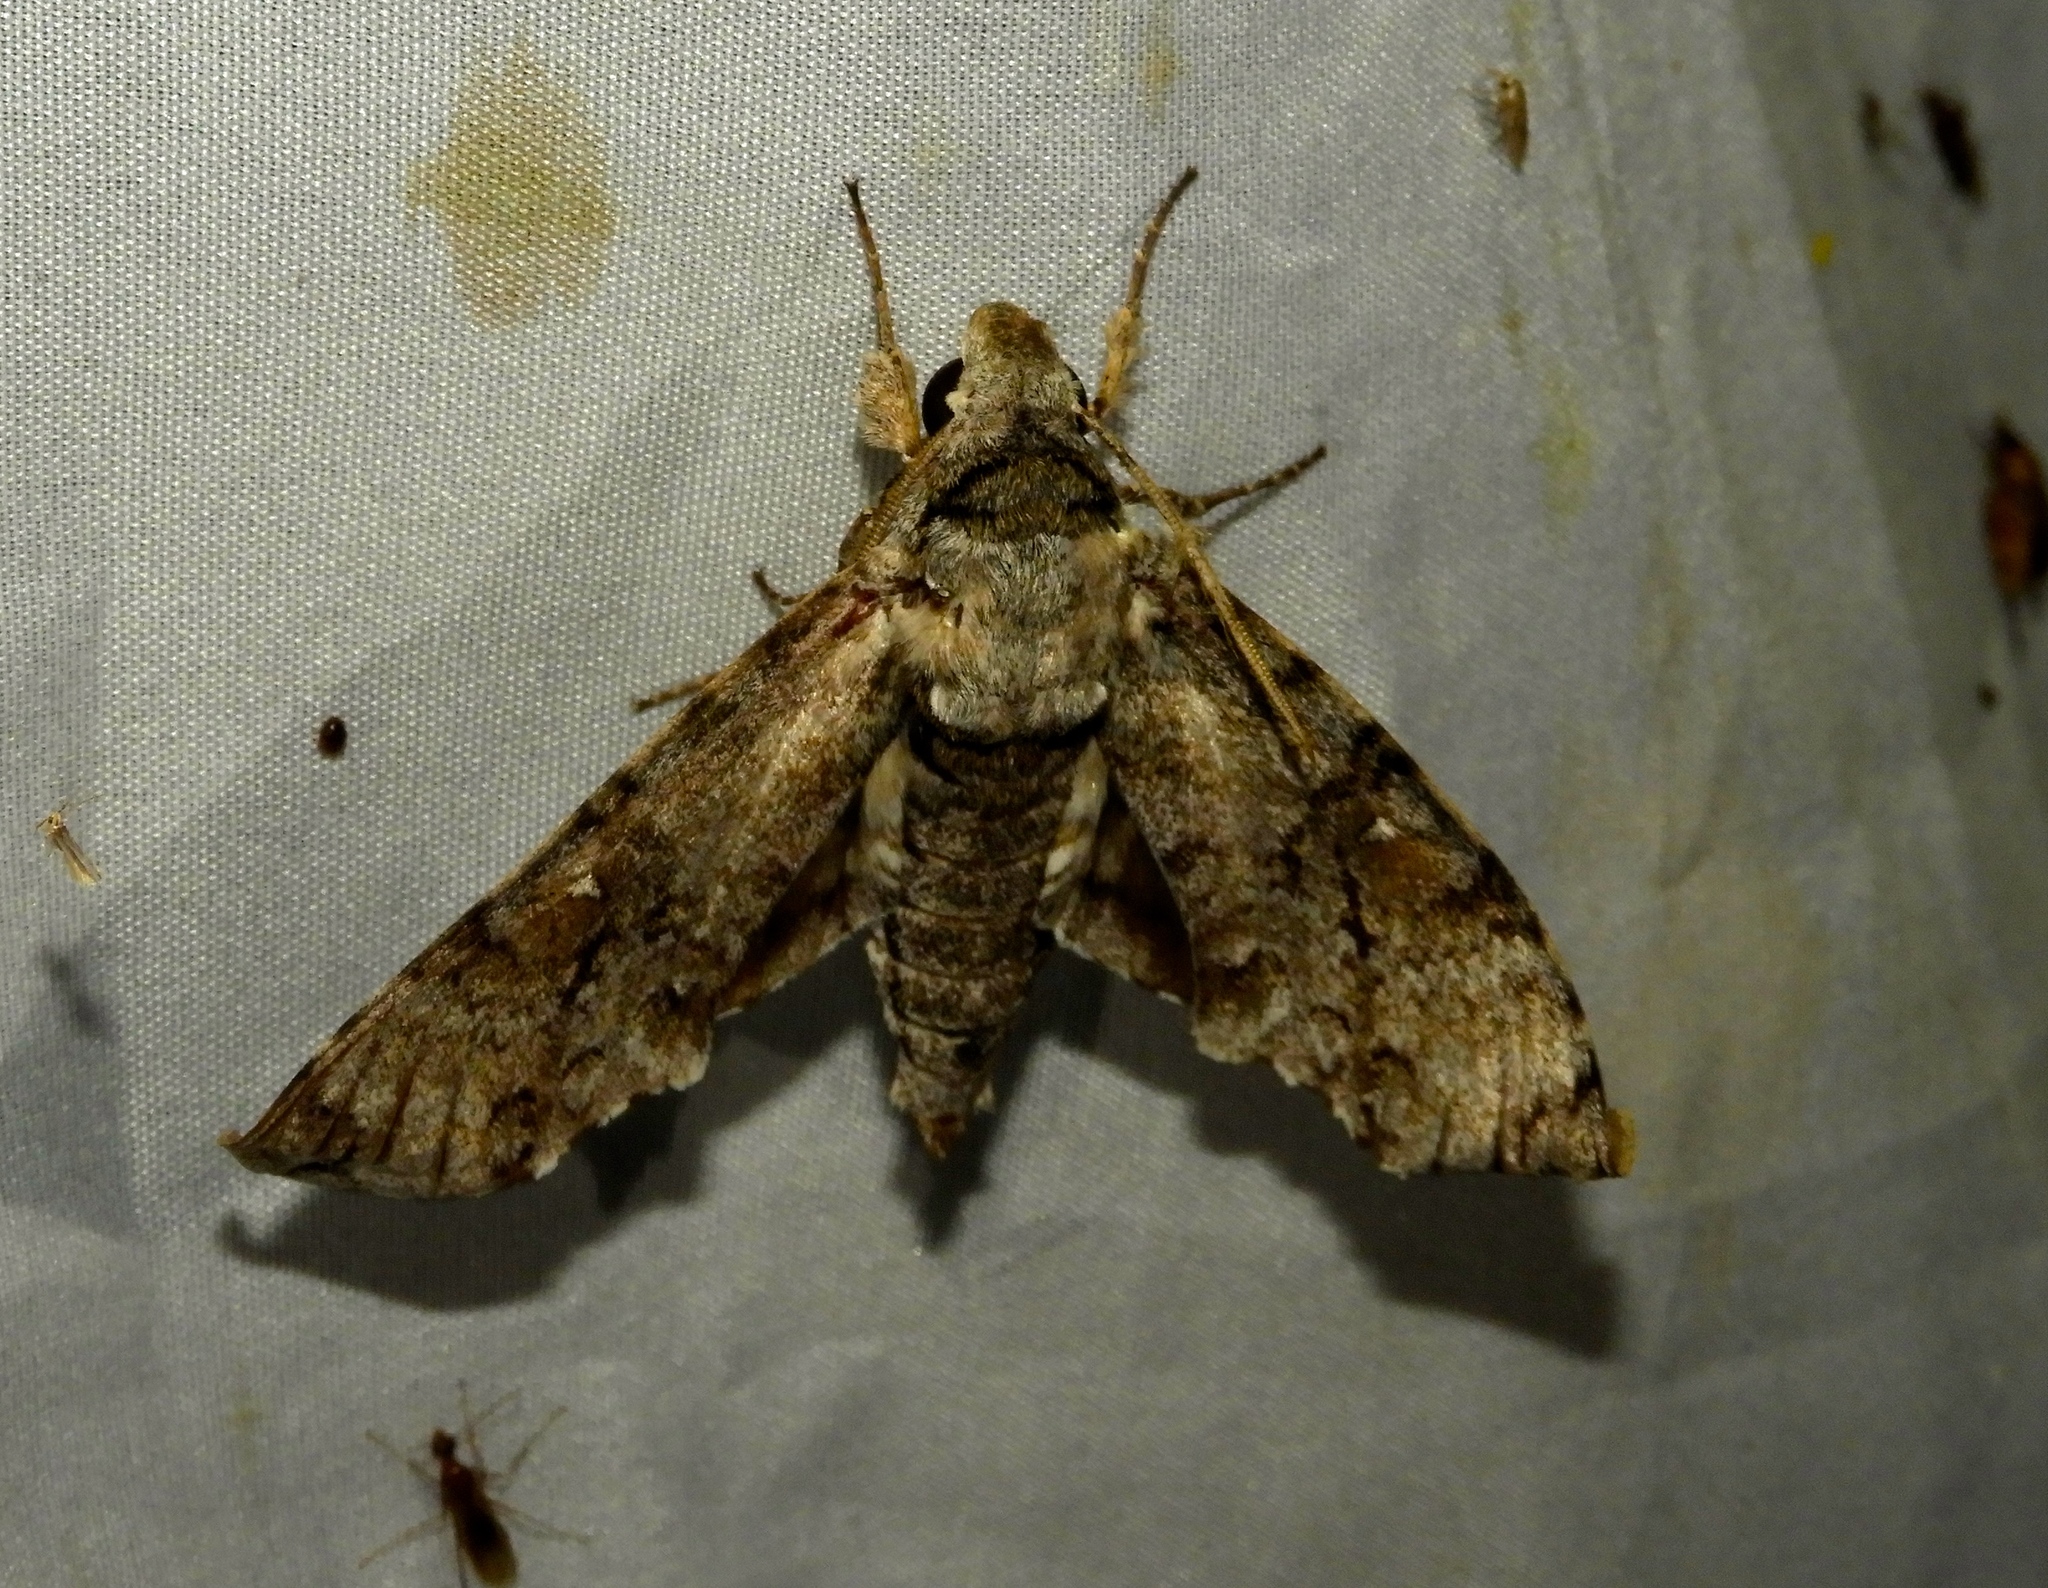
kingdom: Animalia
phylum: Arthropoda
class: Insecta
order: Lepidoptera
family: Sphingidae
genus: Manduca
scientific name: Manduca florestan
